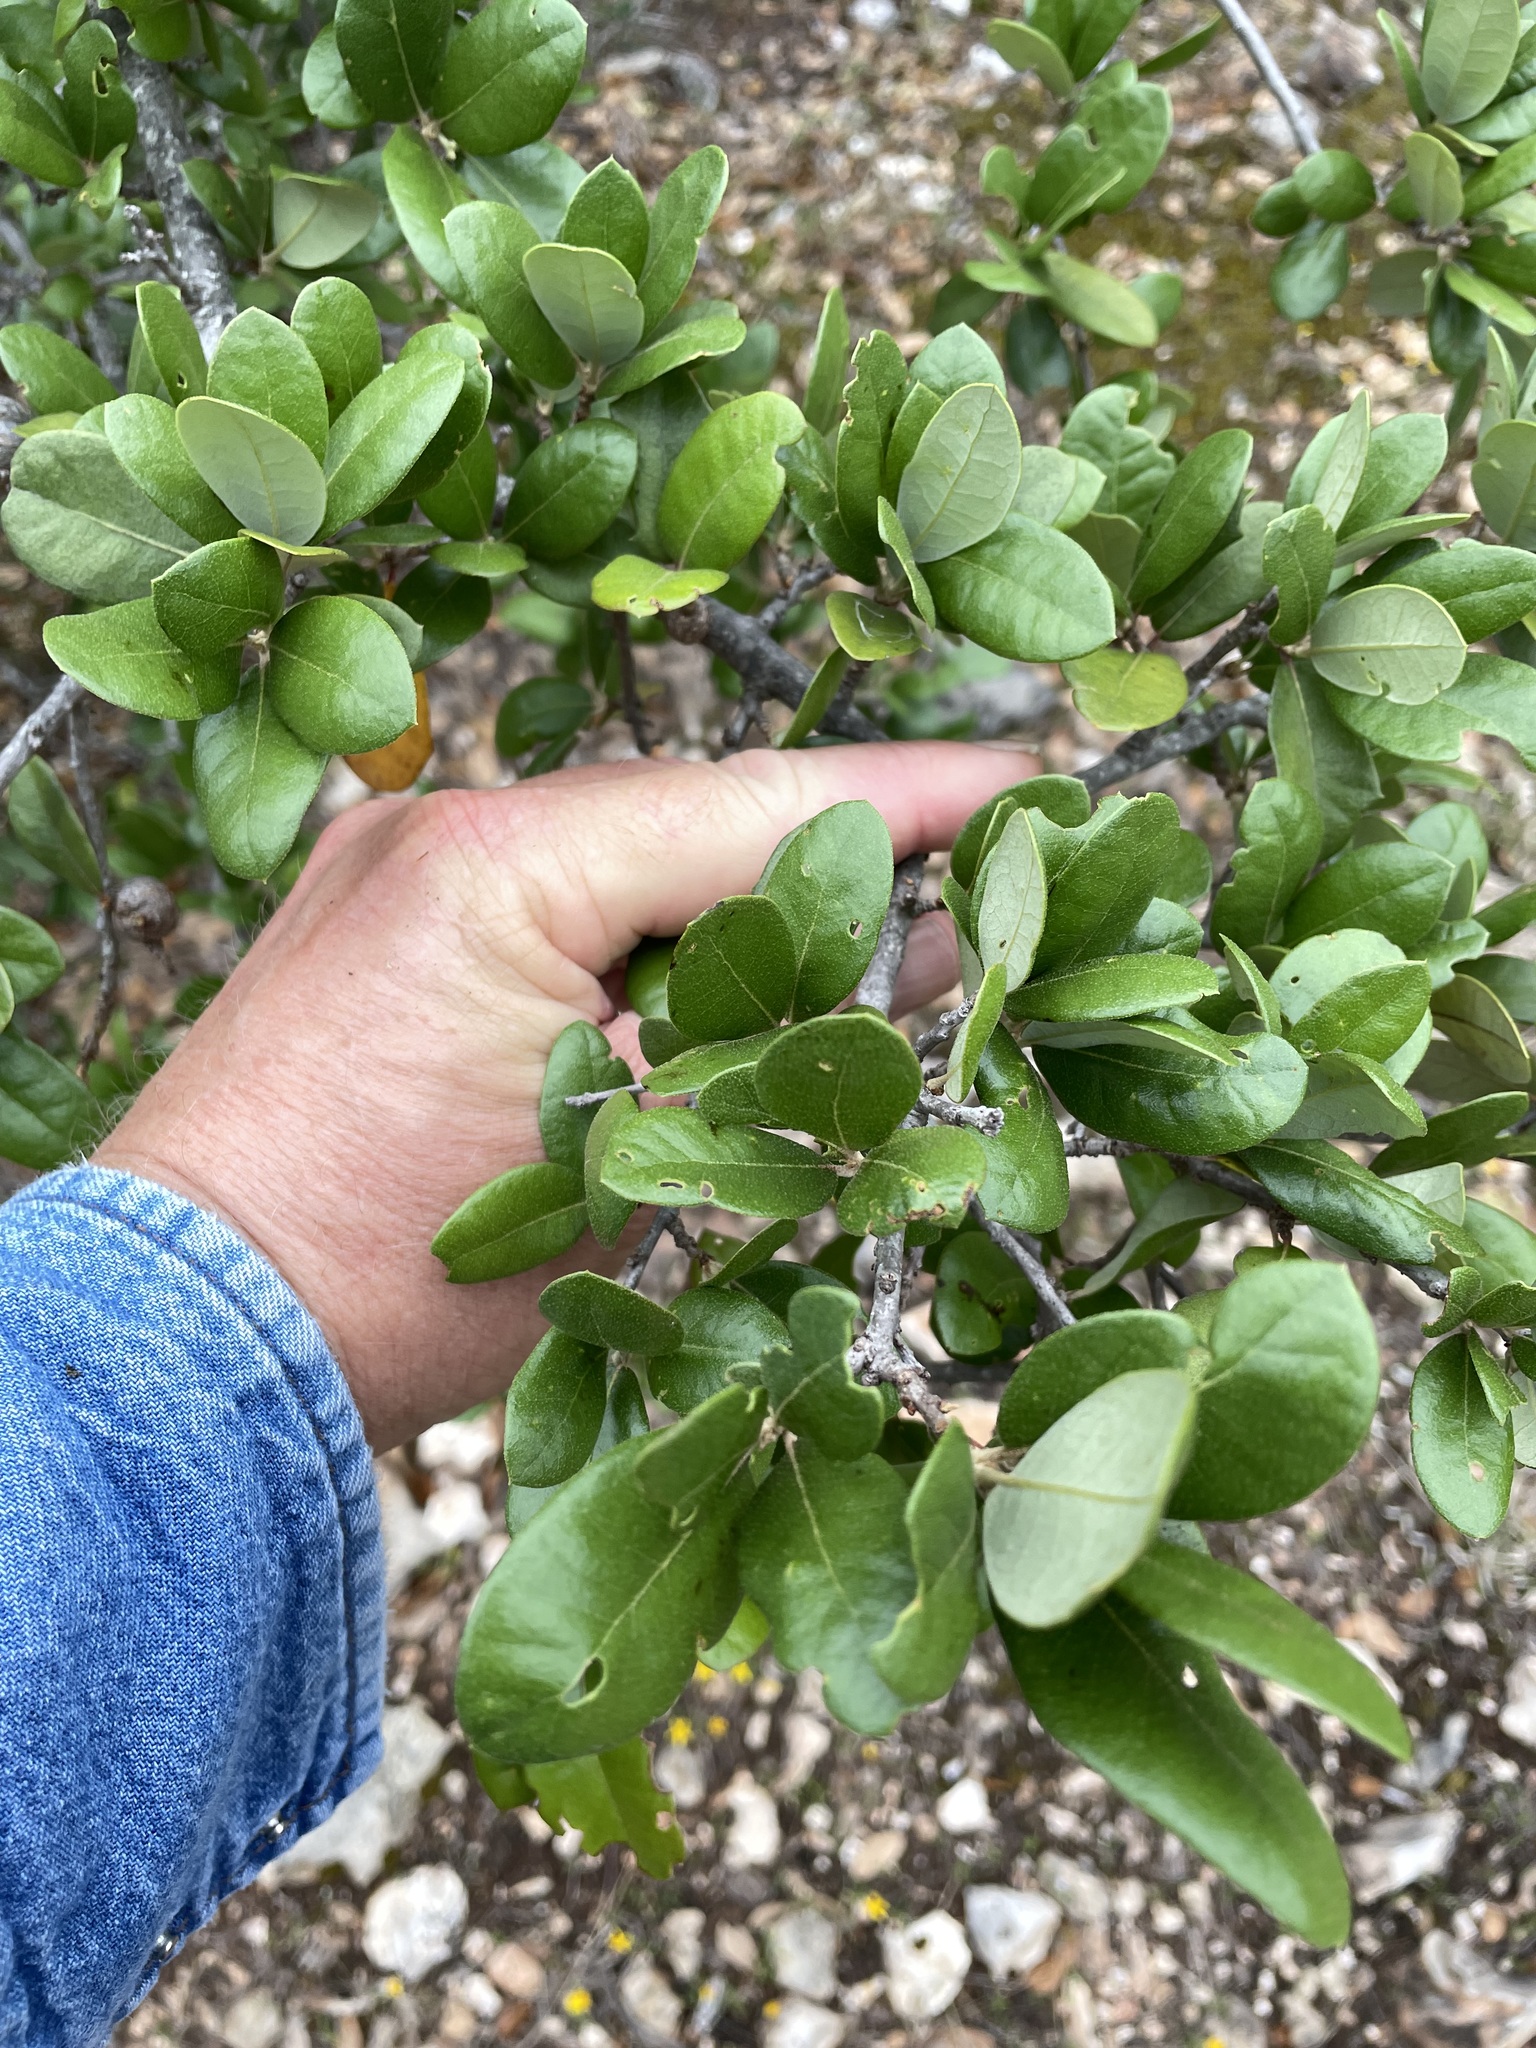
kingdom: Plantae
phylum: Tracheophyta
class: Magnoliopsida
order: Fagales
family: Fagaceae
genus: Quercus
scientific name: Quercus fusiformis
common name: Texas live oak
